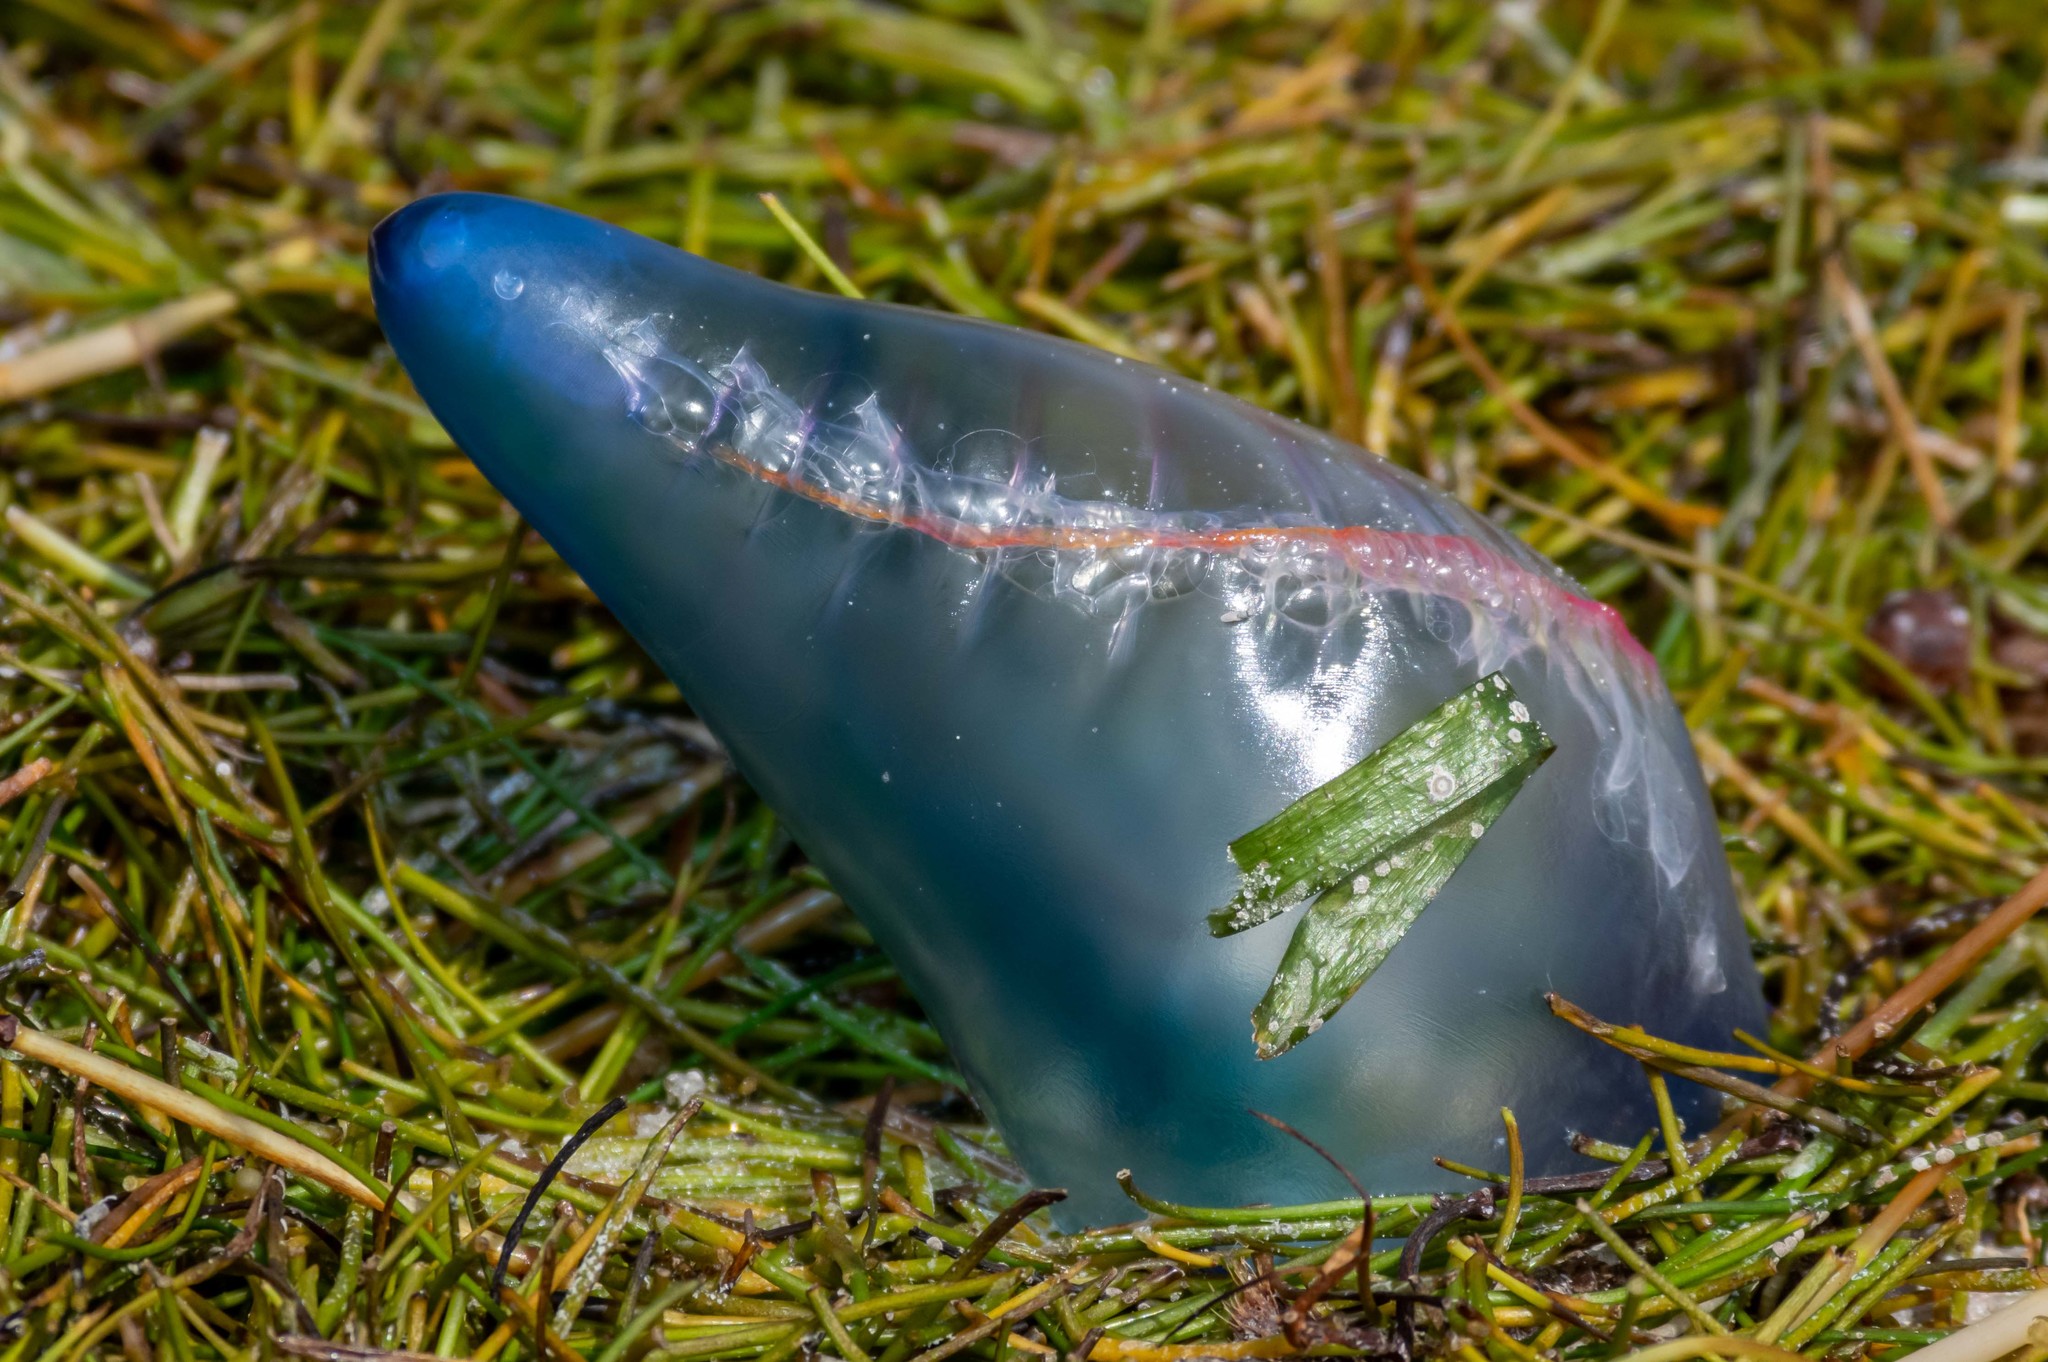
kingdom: Animalia
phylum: Cnidaria
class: Hydrozoa
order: Siphonophorae
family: Physaliidae
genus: Physalia
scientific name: Physalia physalis
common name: Portuguese man-of-war
